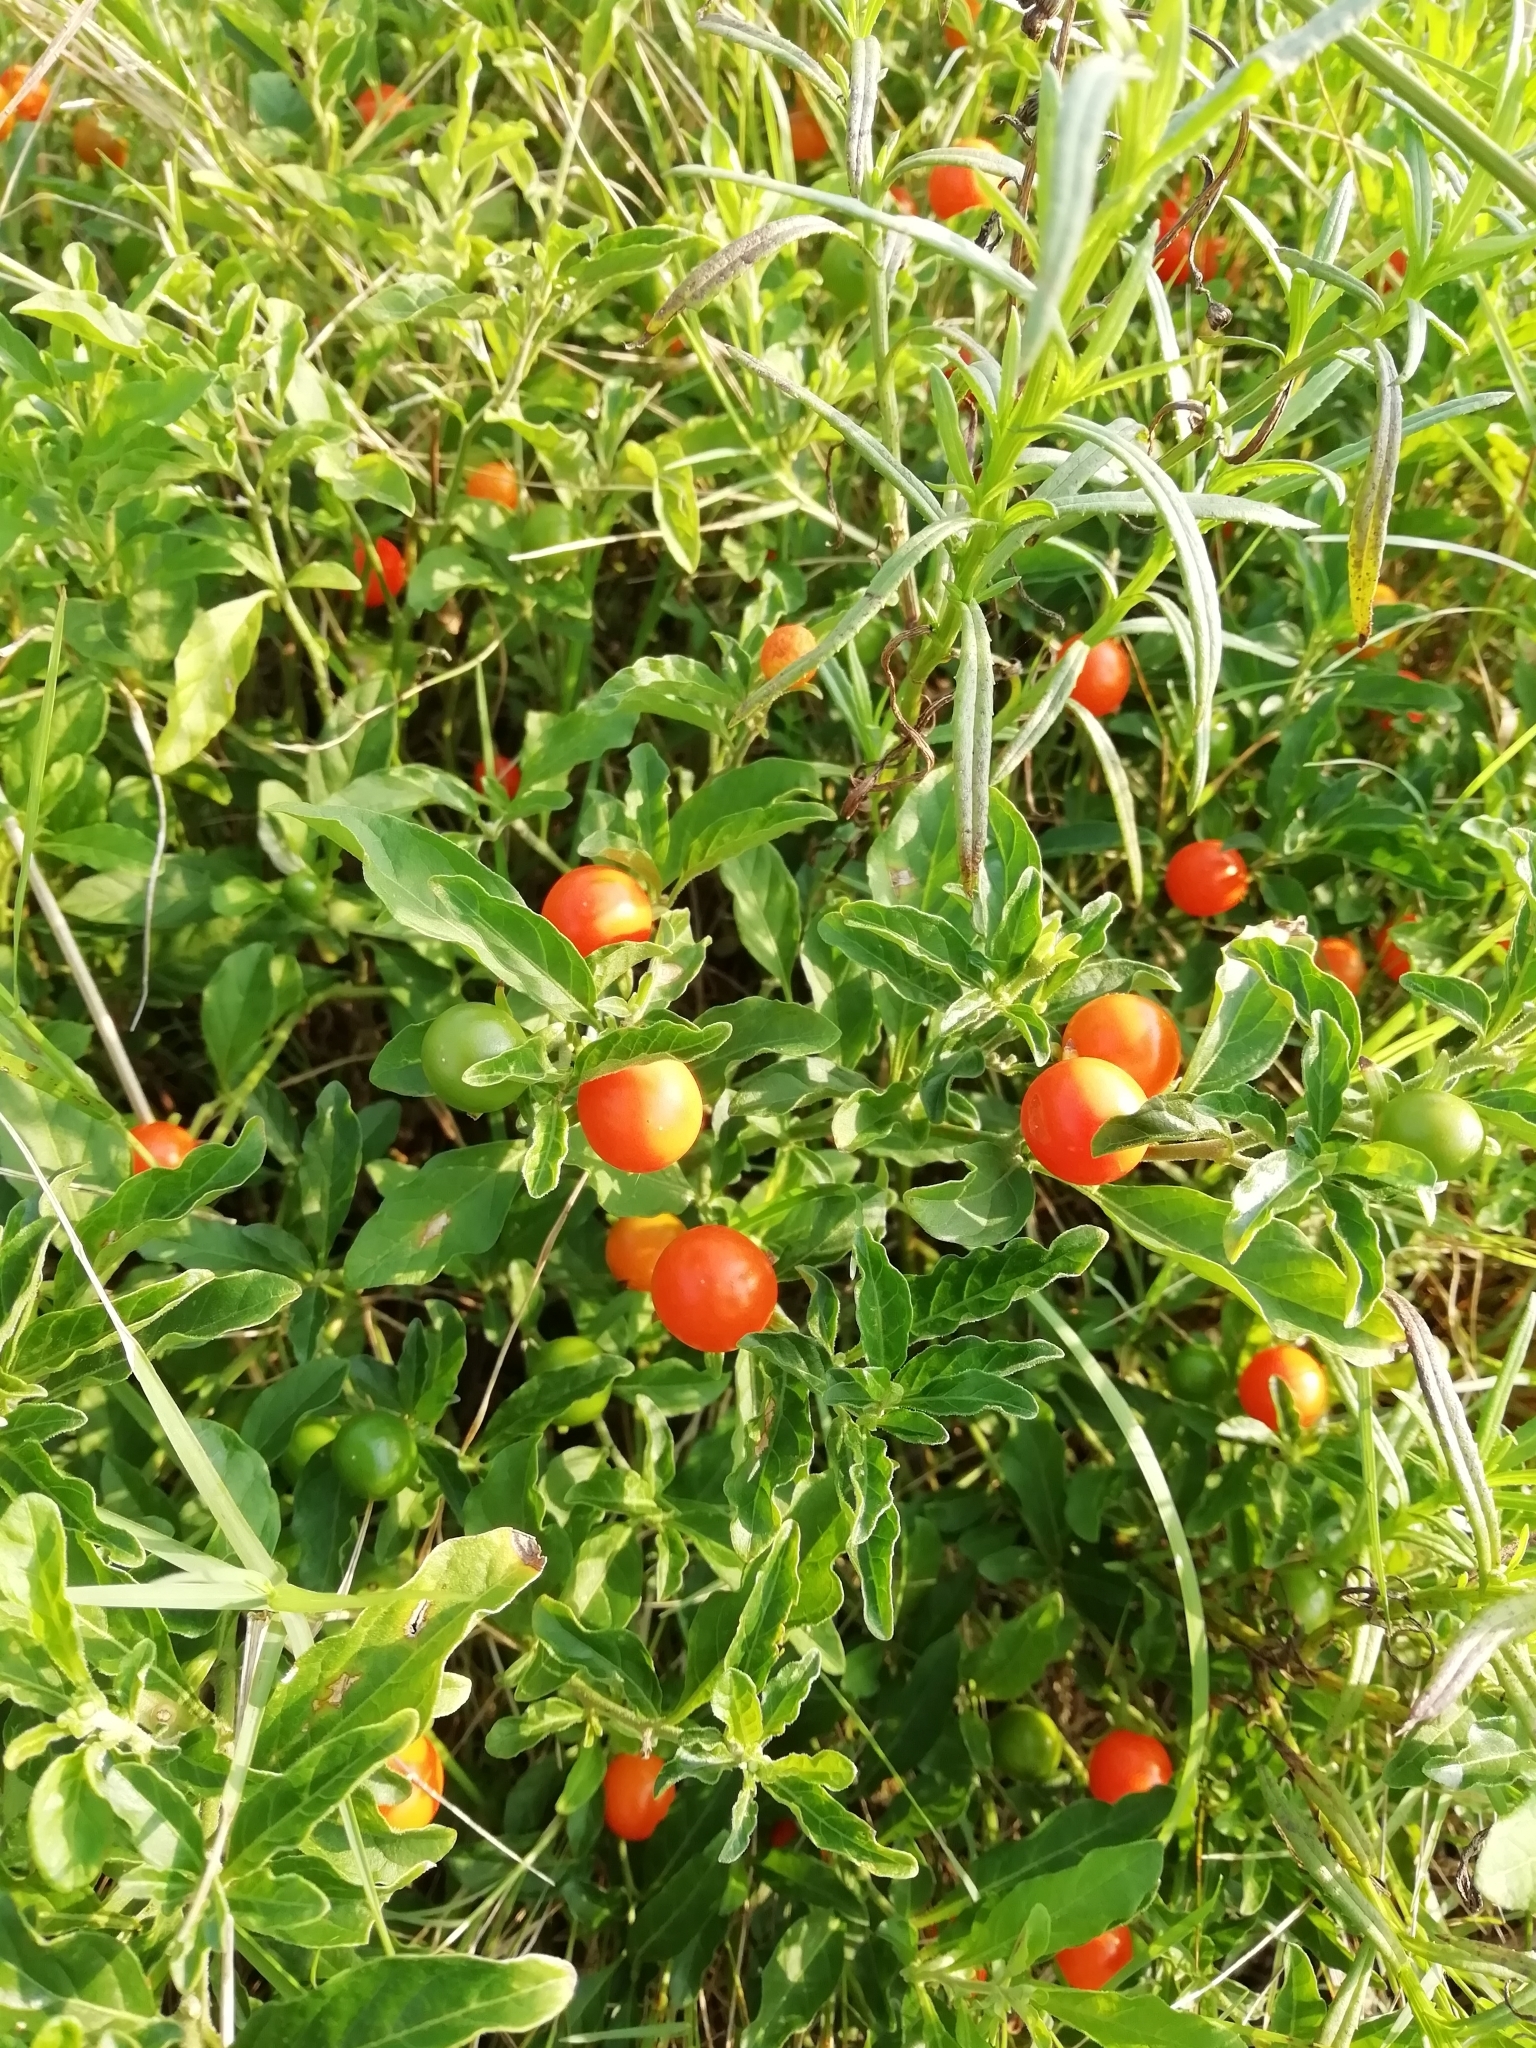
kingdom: Plantae
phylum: Tracheophyta
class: Magnoliopsida
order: Solanales
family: Solanaceae
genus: Solanum
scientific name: Solanum pseudocapsicum
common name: Jerusalem cherry
